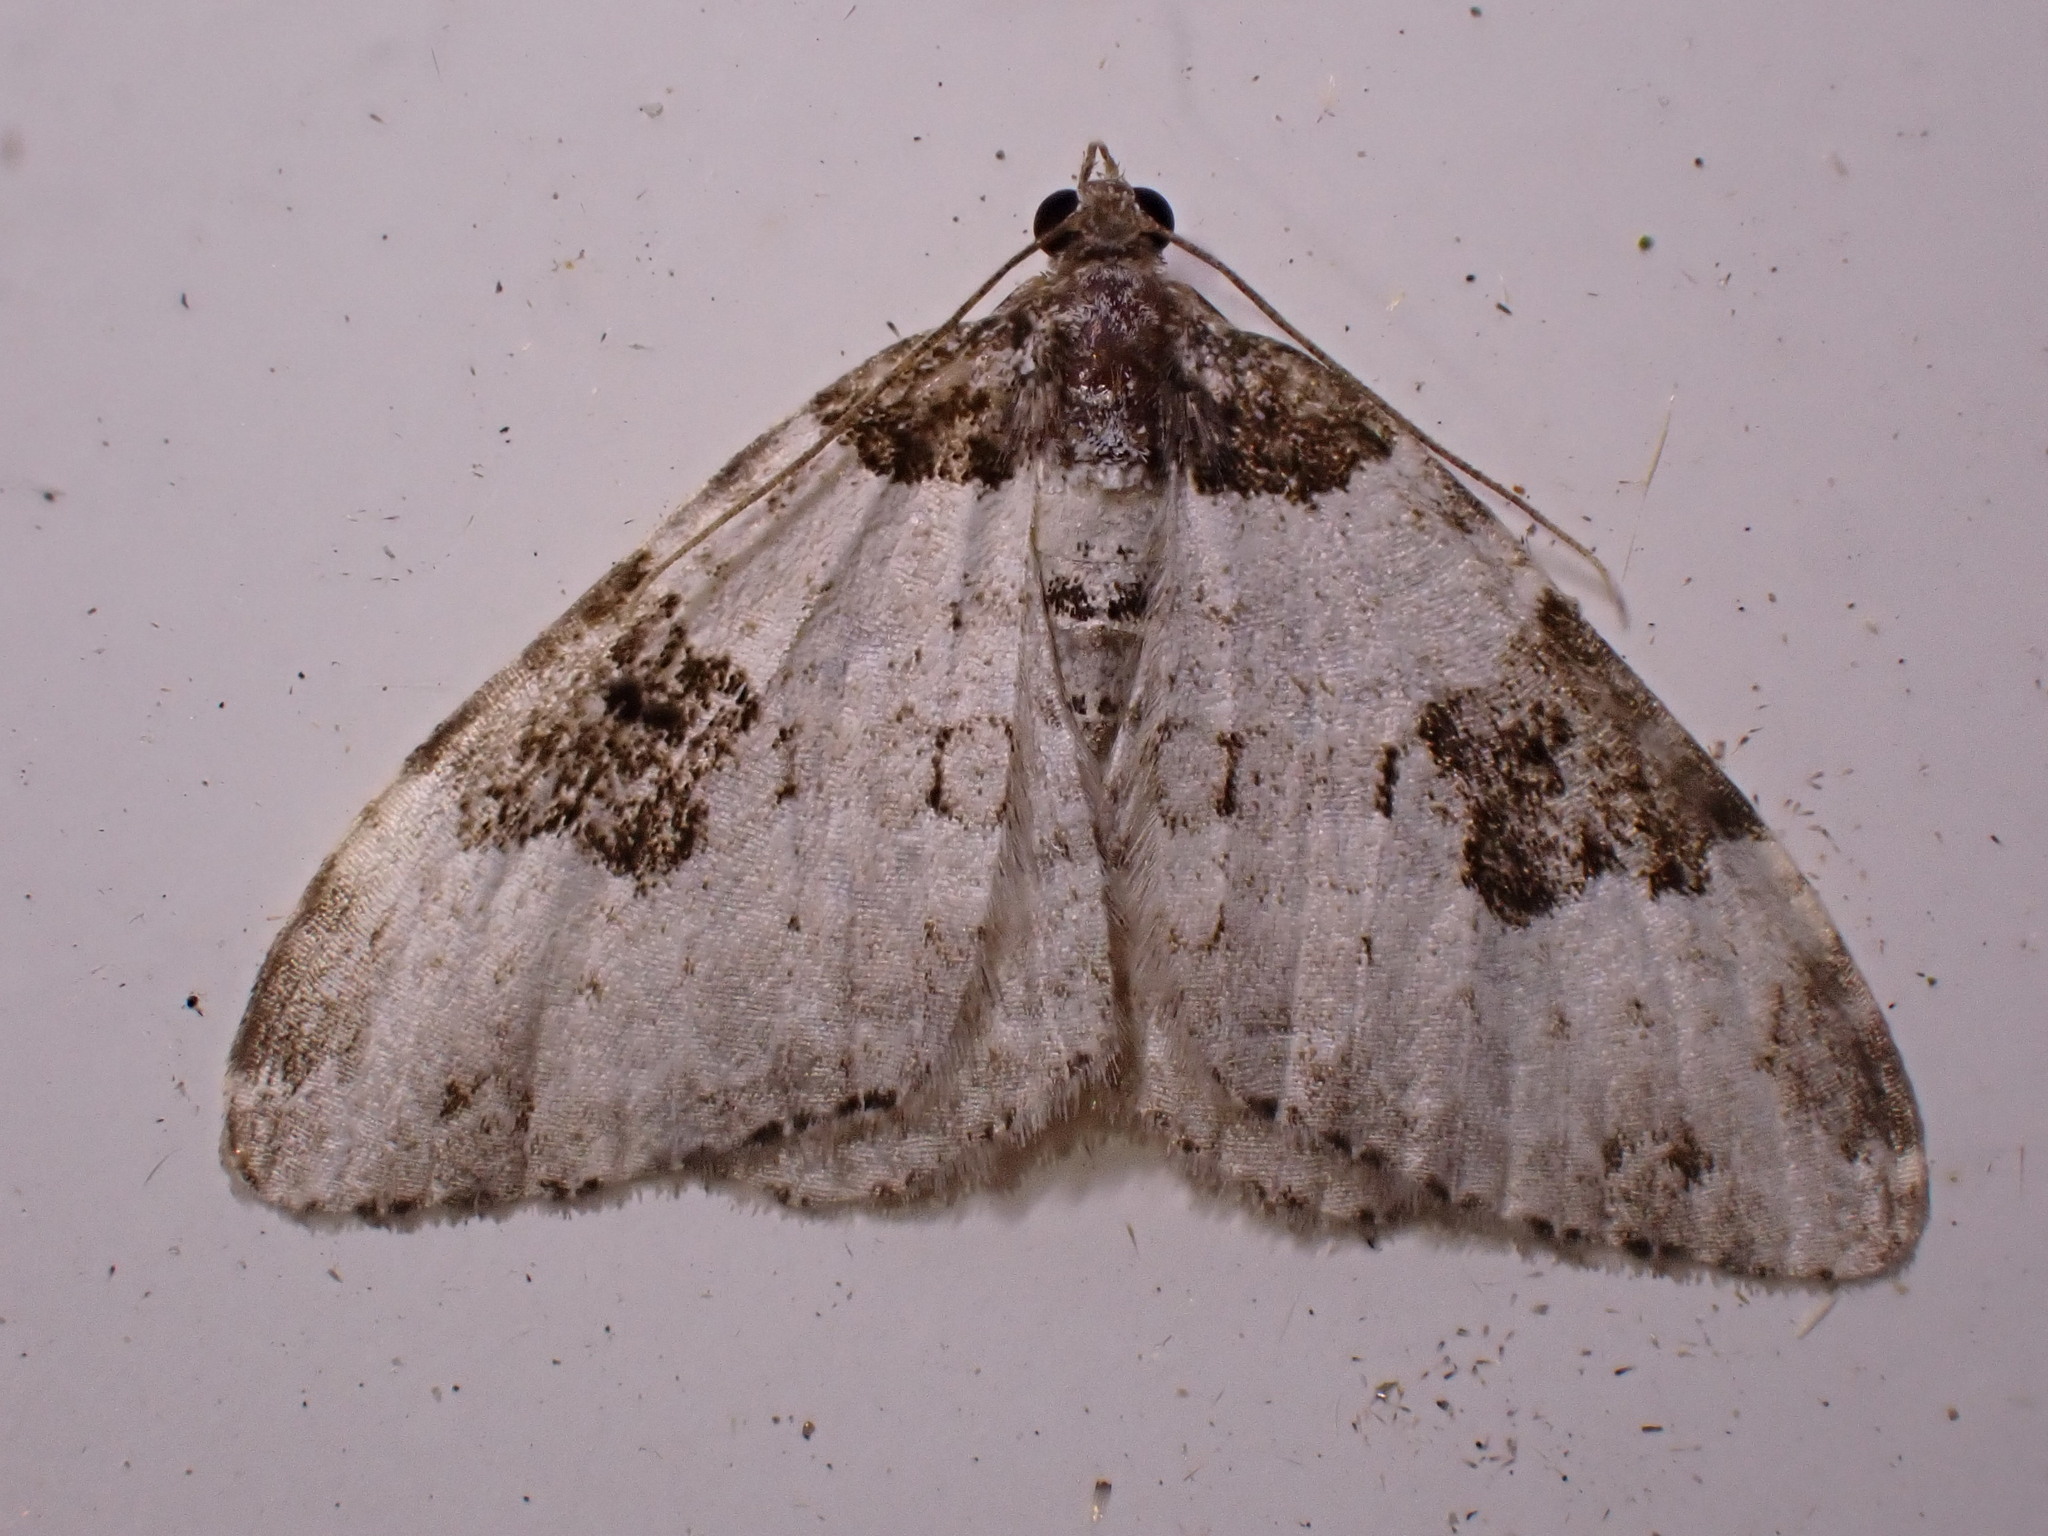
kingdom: Animalia
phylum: Arthropoda
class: Insecta
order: Lepidoptera
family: Geometridae
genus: Xanthorhoe
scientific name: Xanthorhoe fluctuata
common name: Garden carpet
